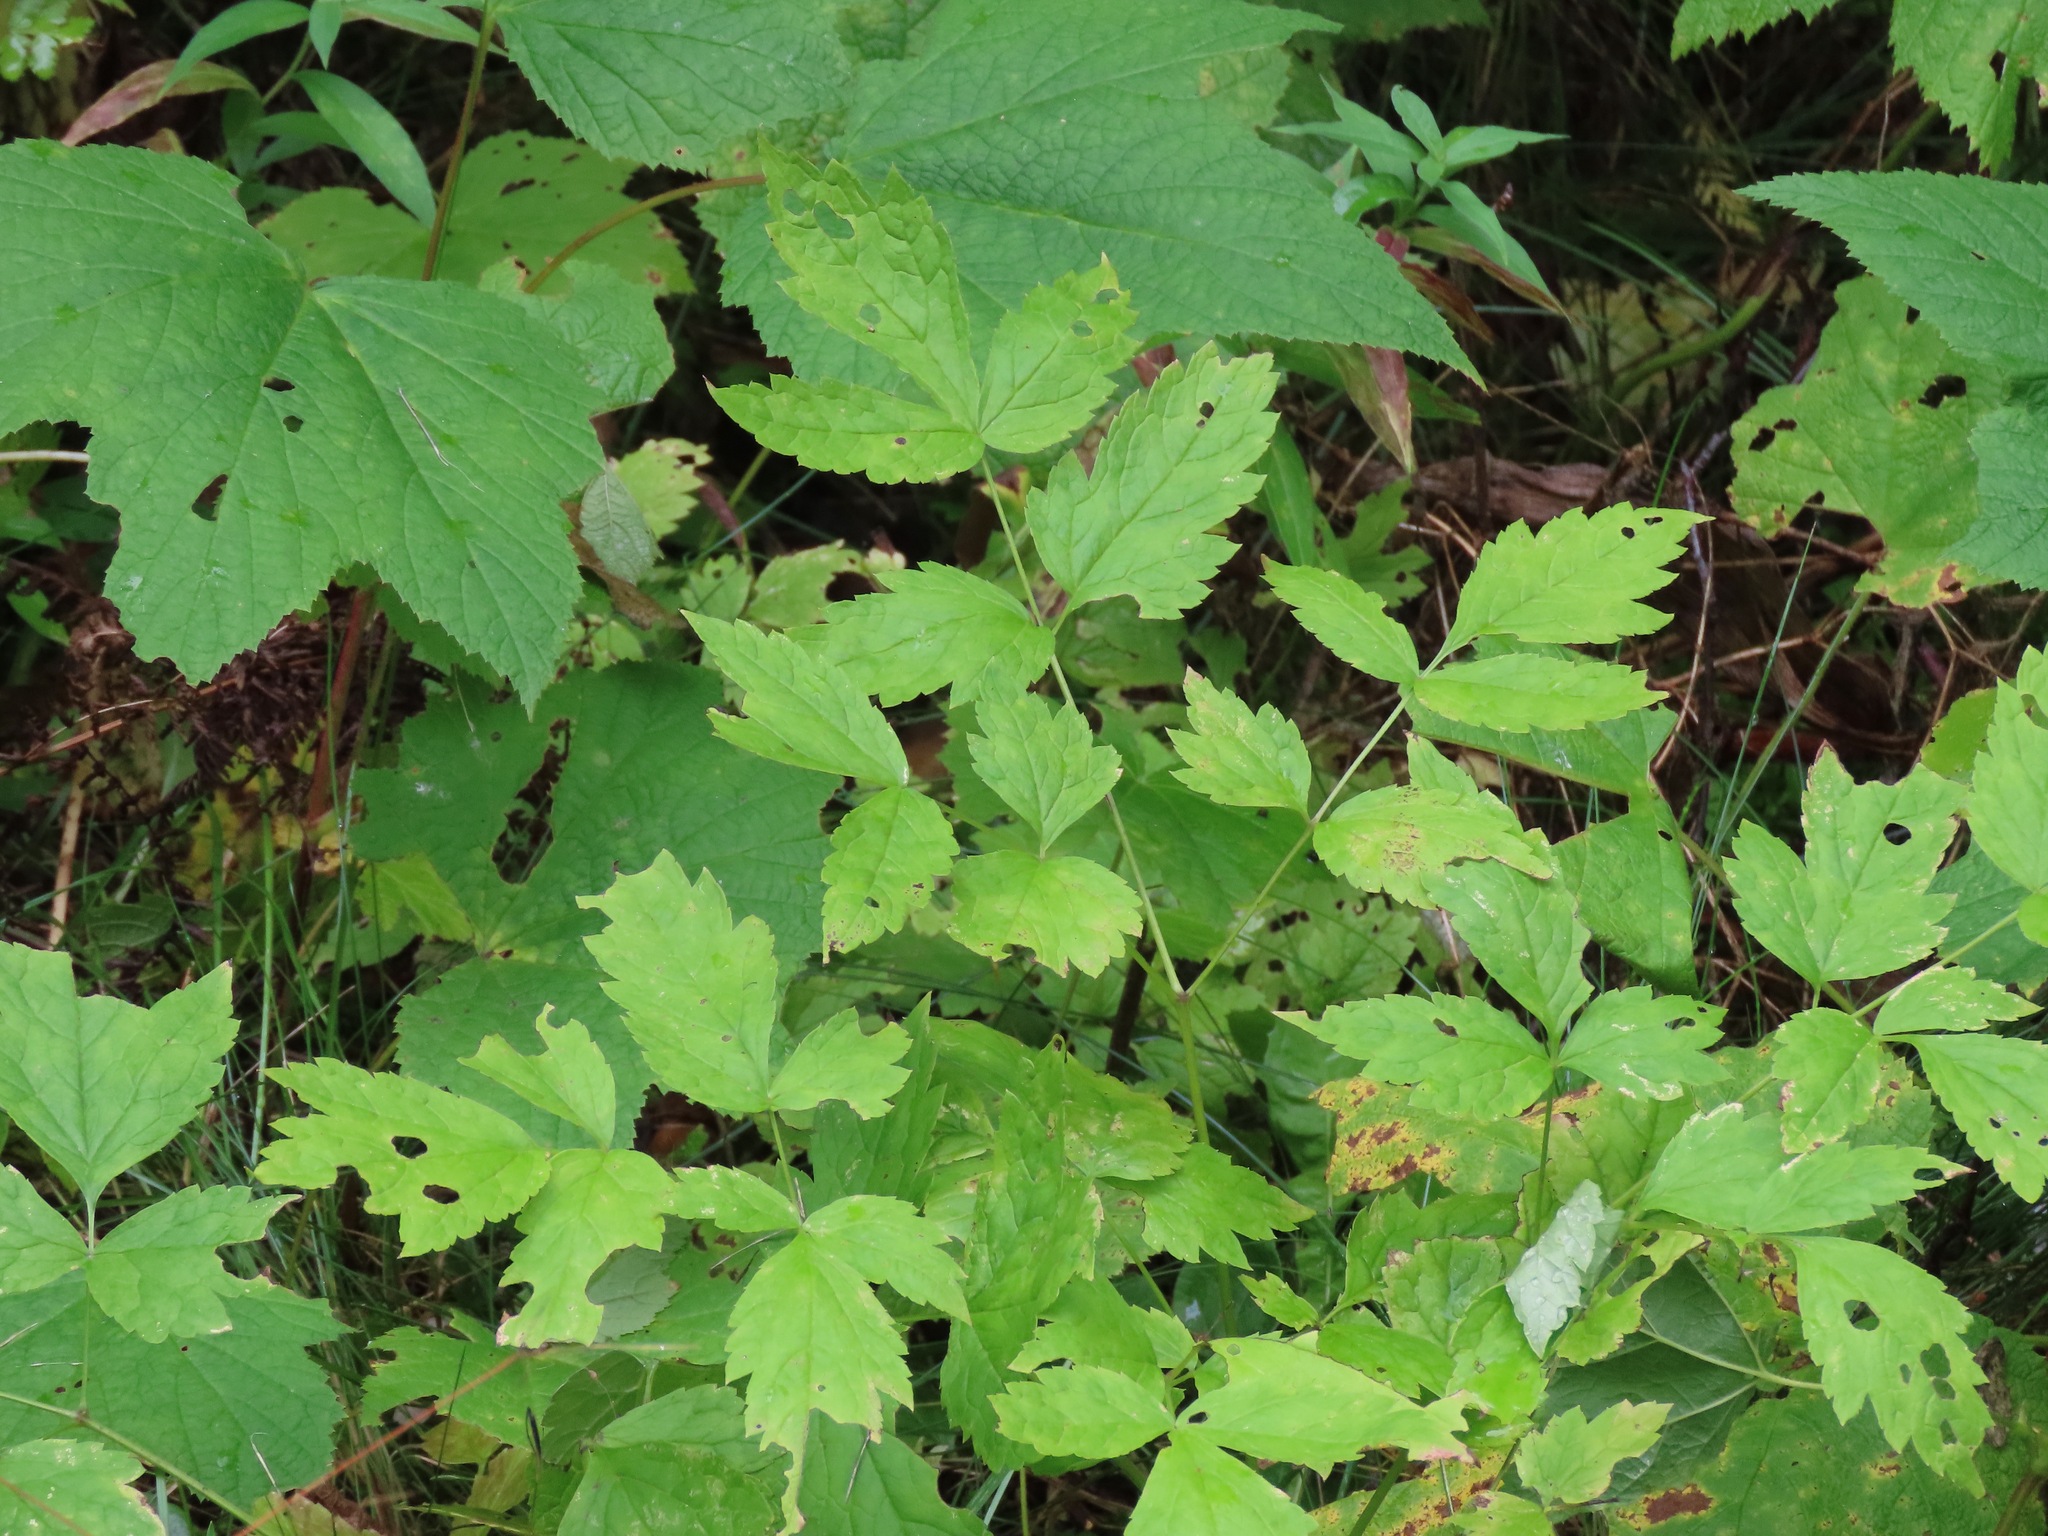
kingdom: Plantae
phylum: Tracheophyta
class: Magnoliopsida
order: Ranunculales
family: Ranunculaceae
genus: Actaea
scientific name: Actaea rubra
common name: Red baneberry
